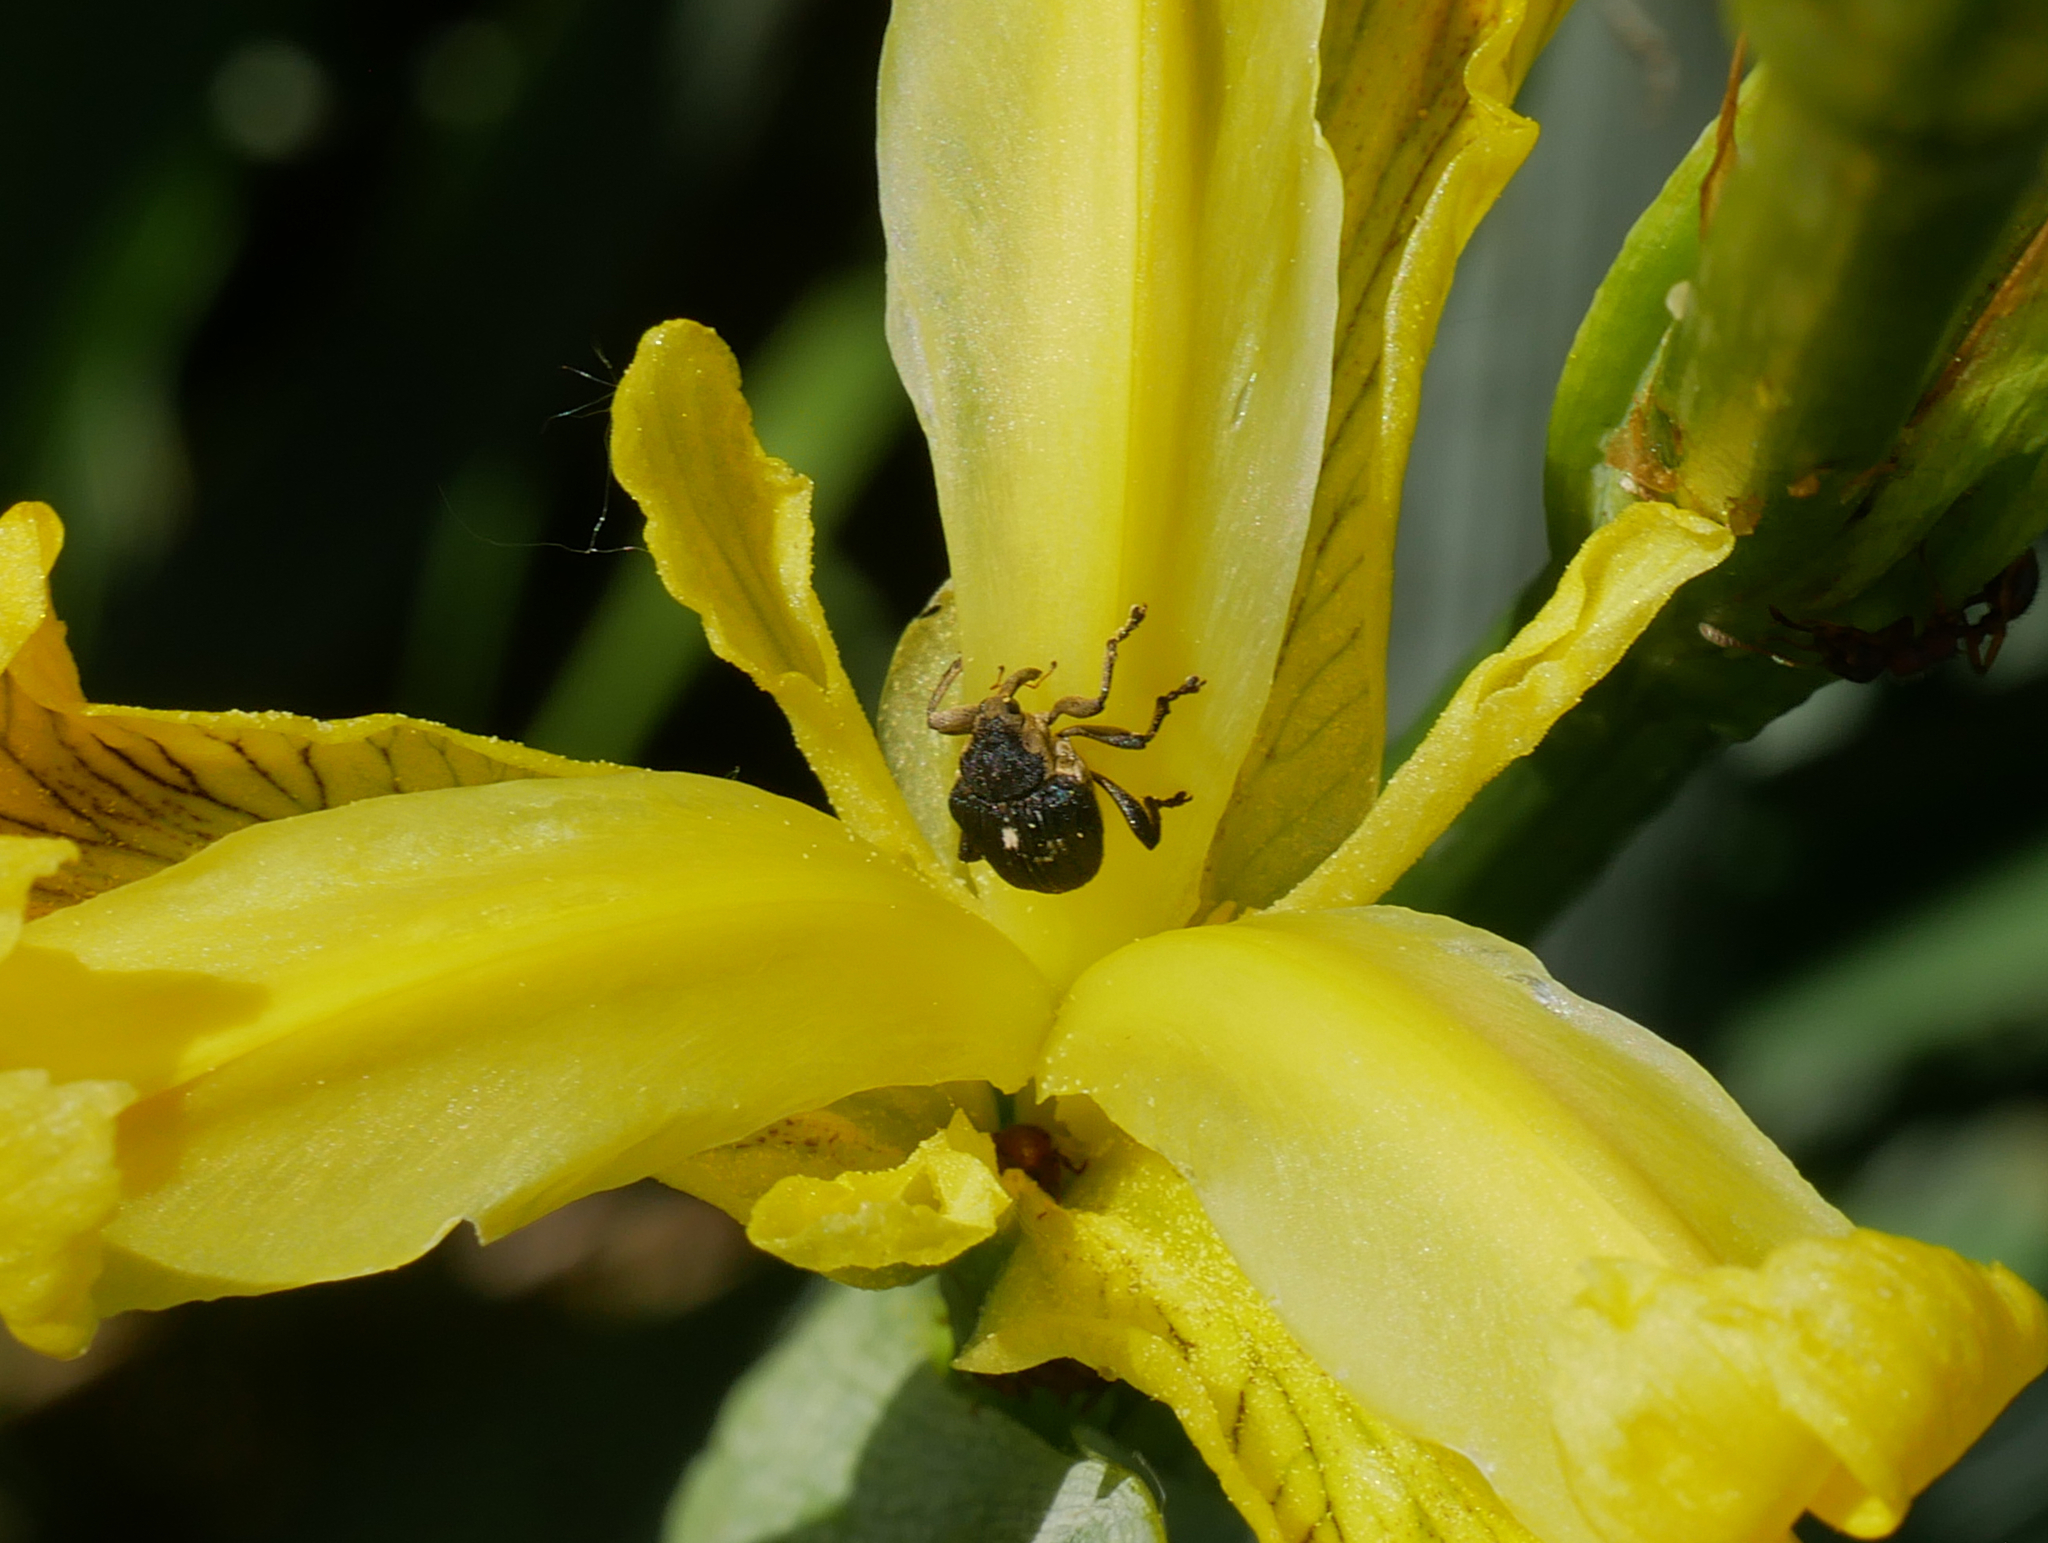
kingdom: Animalia
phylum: Arthropoda
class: Insecta
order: Coleoptera
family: Curculionidae
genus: Mononychus
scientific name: Mononychus punctumalbum
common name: Iris weevil
